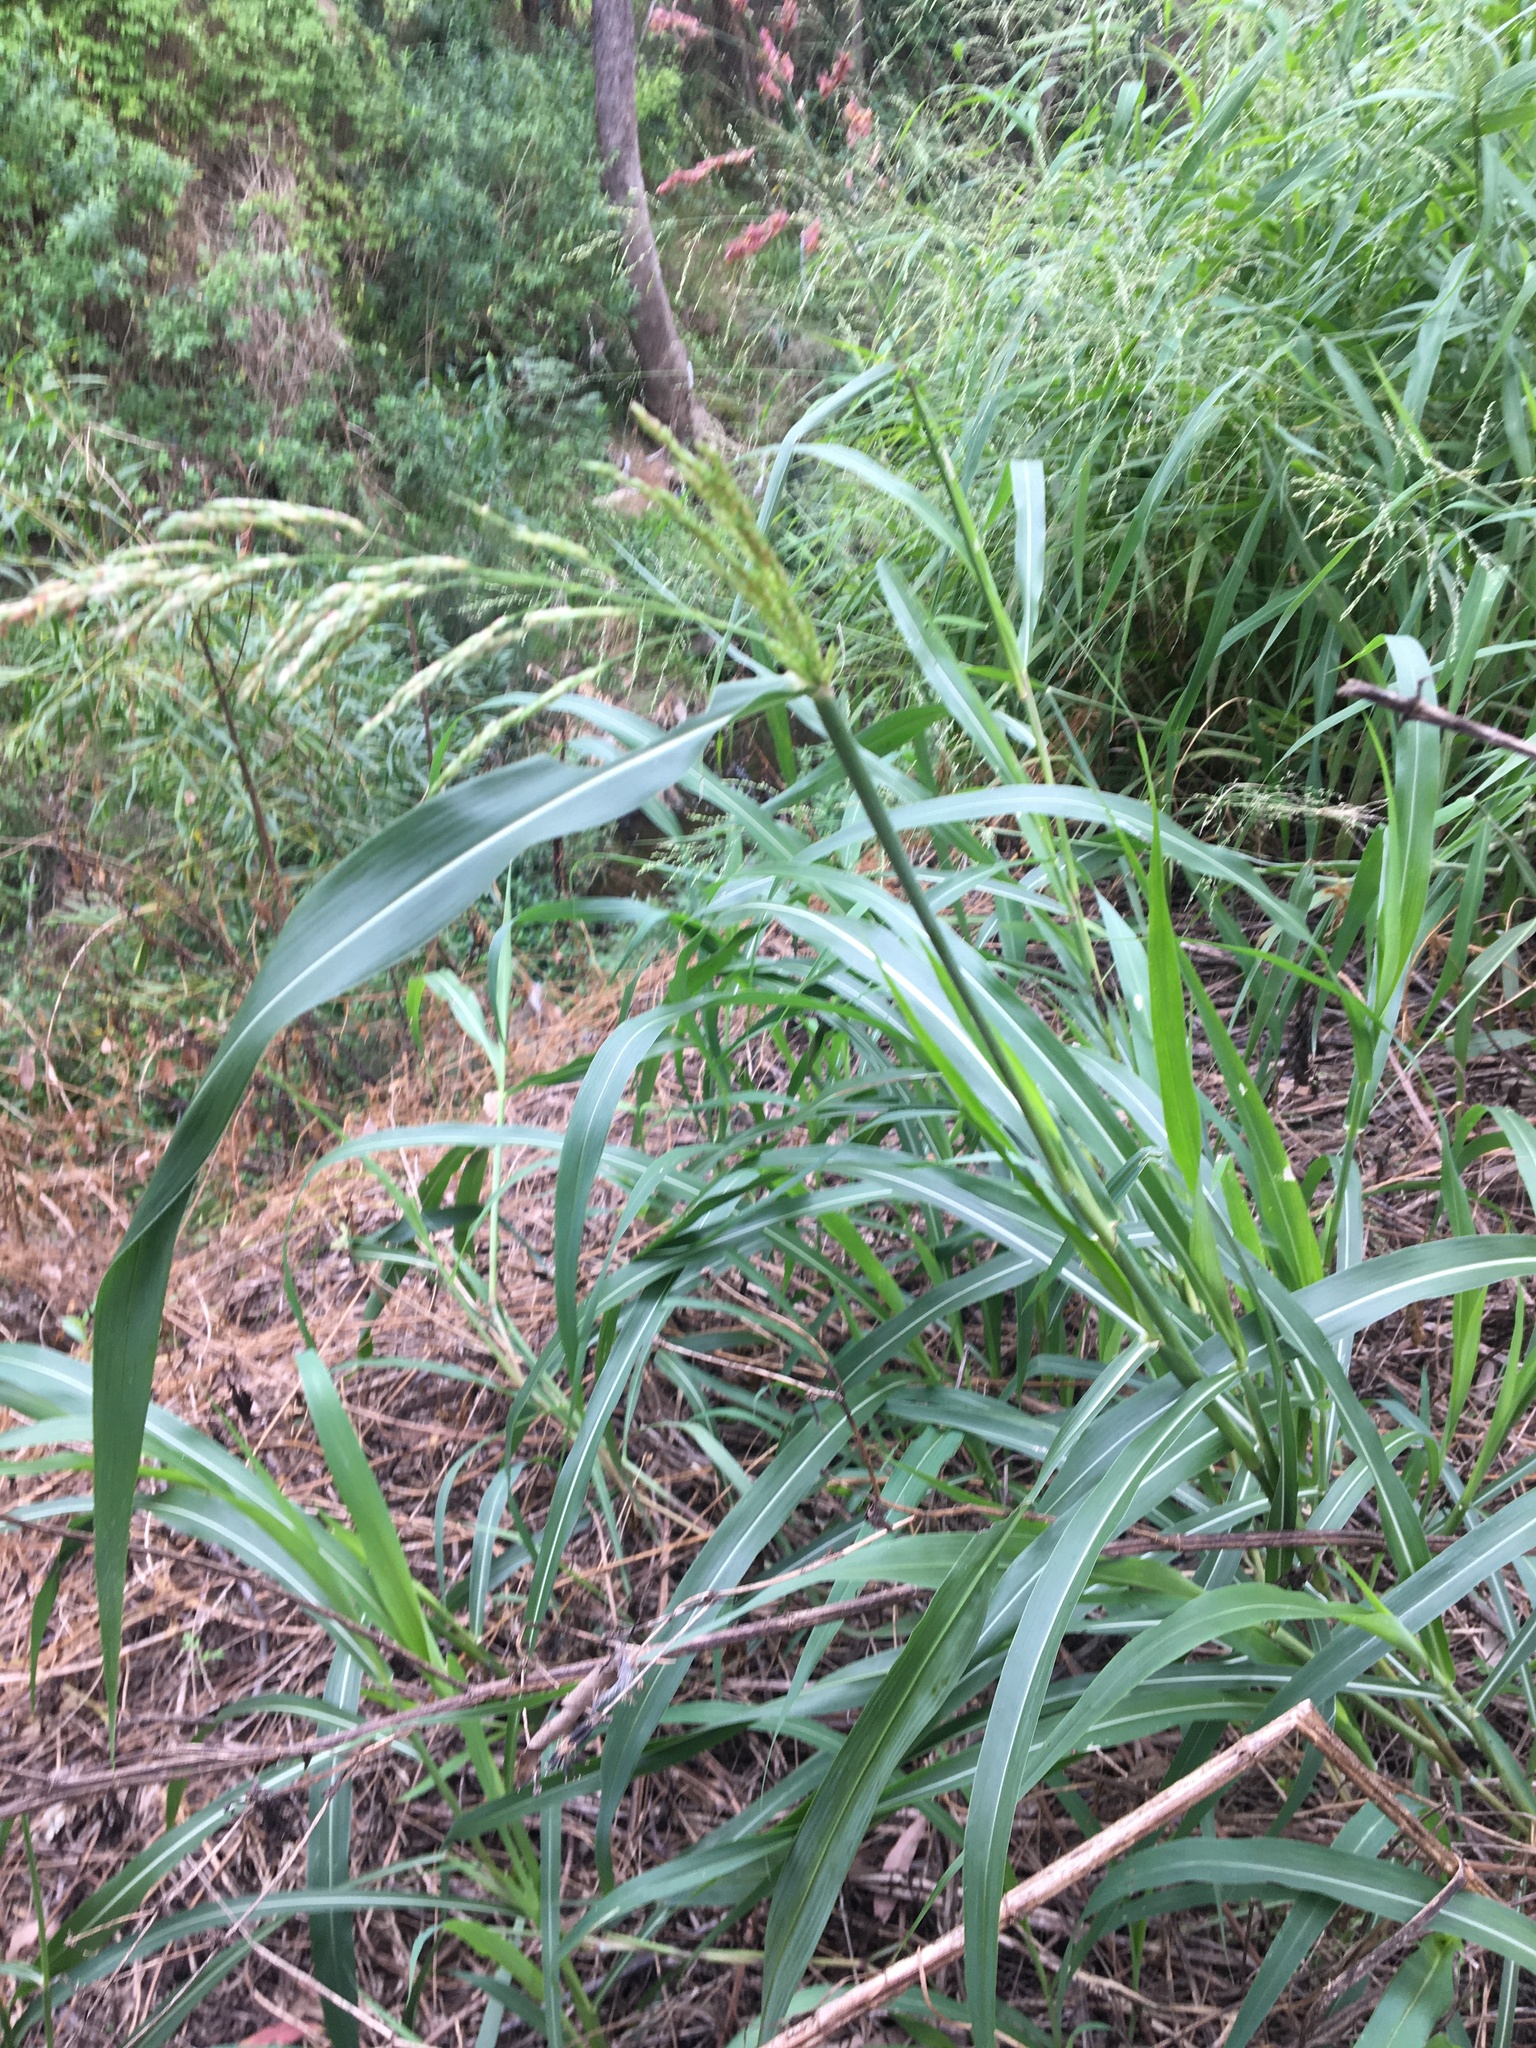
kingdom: Plantae
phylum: Tracheophyta
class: Liliopsida
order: Poales
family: Poaceae
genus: Sorghum
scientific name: Sorghum halepense
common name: Johnson-grass
